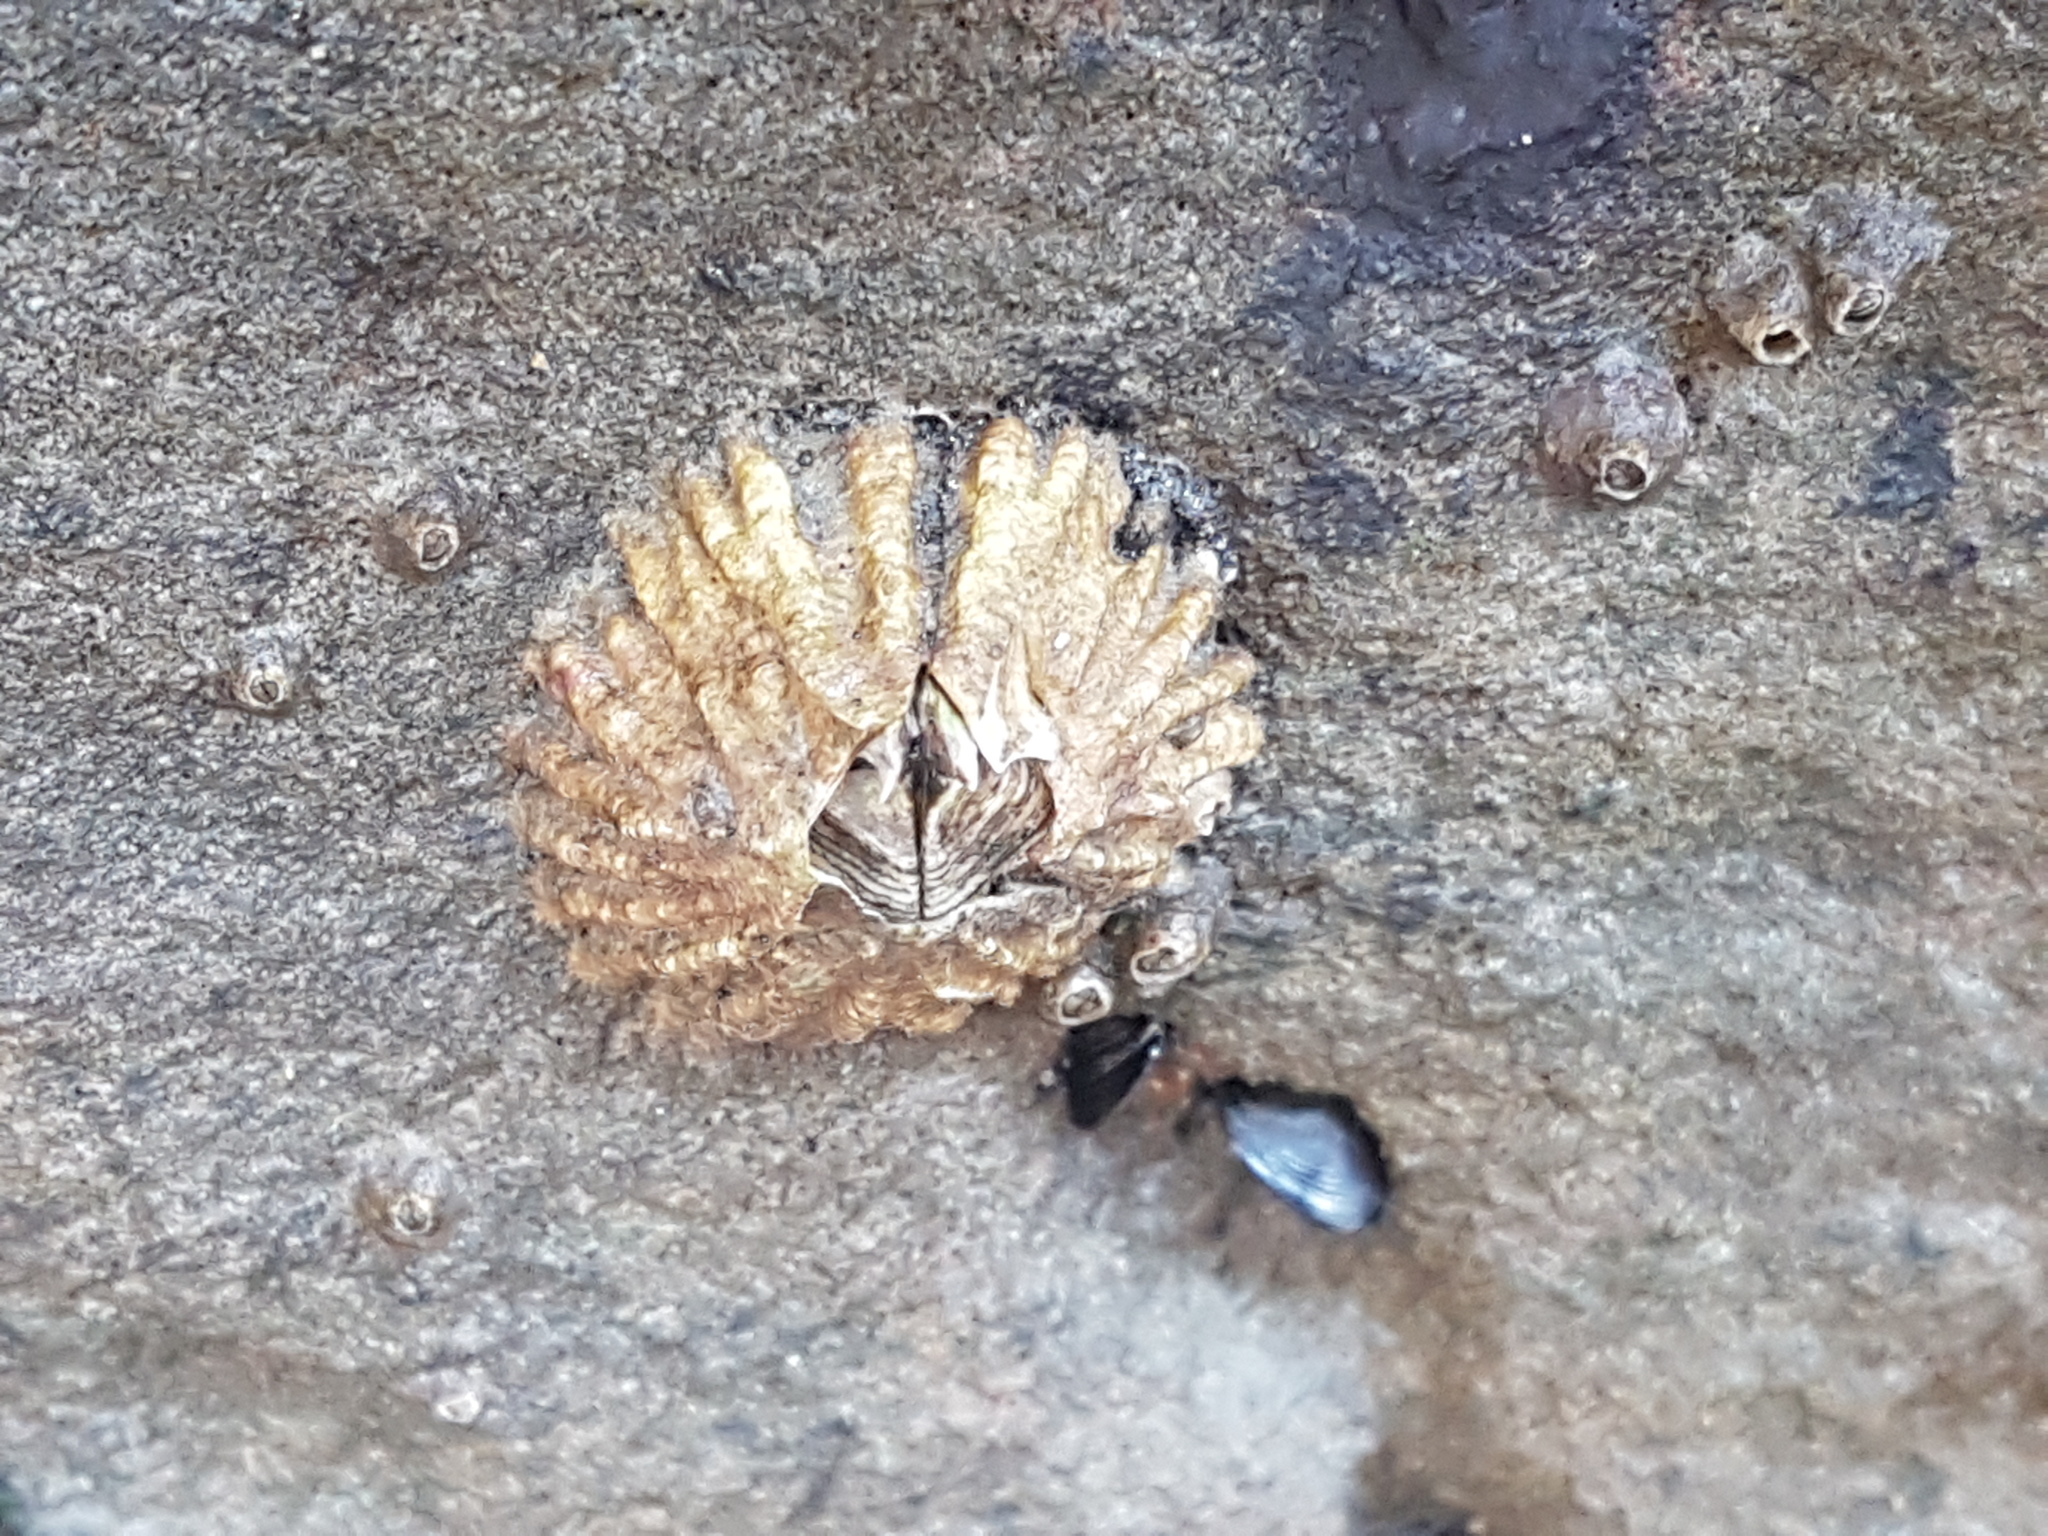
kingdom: Animalia
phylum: Arthropoda
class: Maxillopoda
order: Sessilia
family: Tetraclitidae
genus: Epopella
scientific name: Epopella plicata
